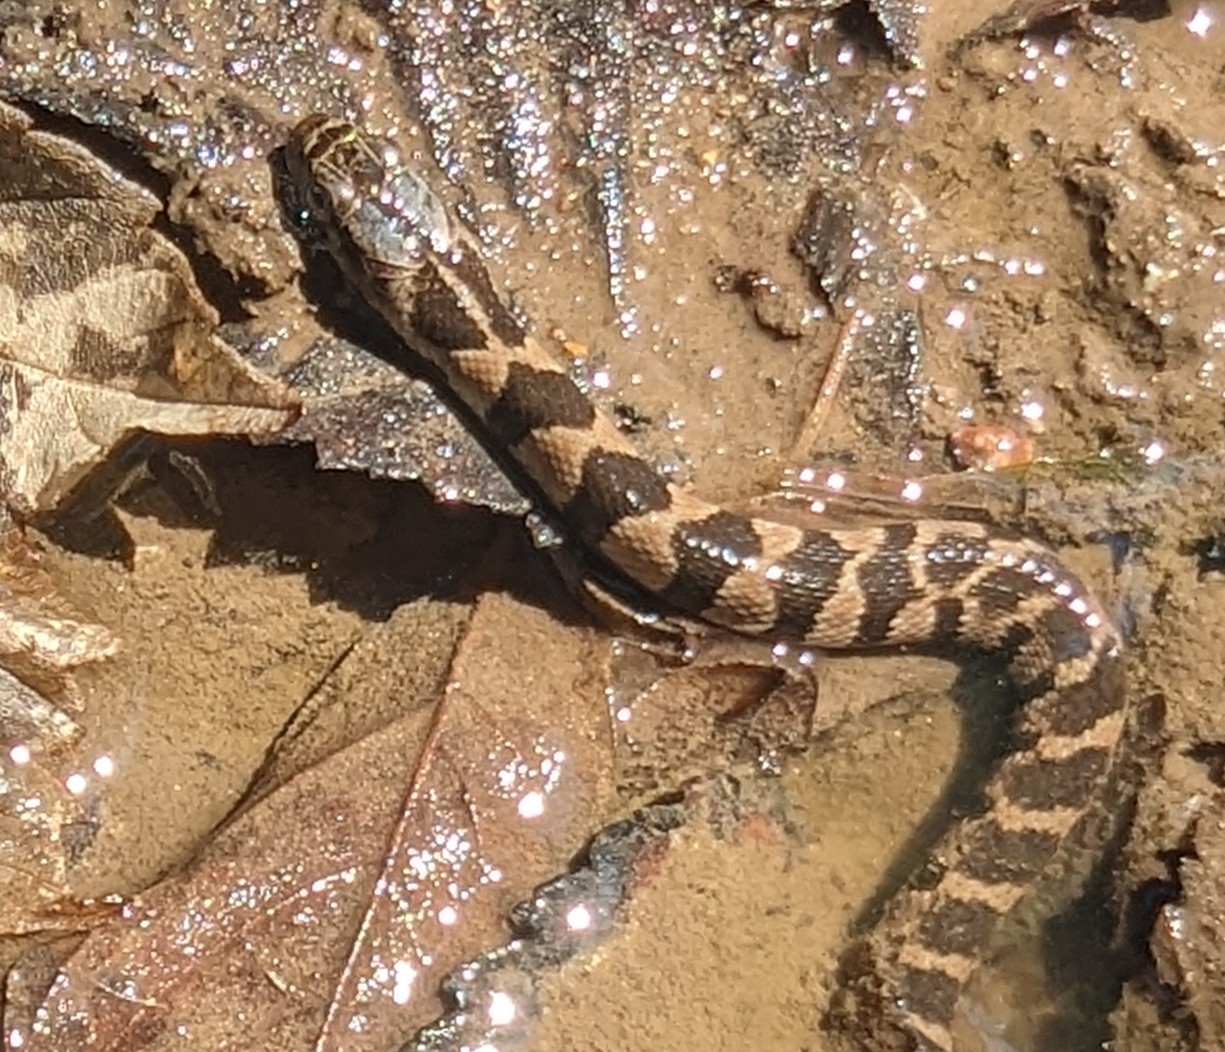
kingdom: Animalia
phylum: Chordata
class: Squamata
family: Colubridae
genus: Nerodia
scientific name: Nerodia sipedon
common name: Northern water snake
